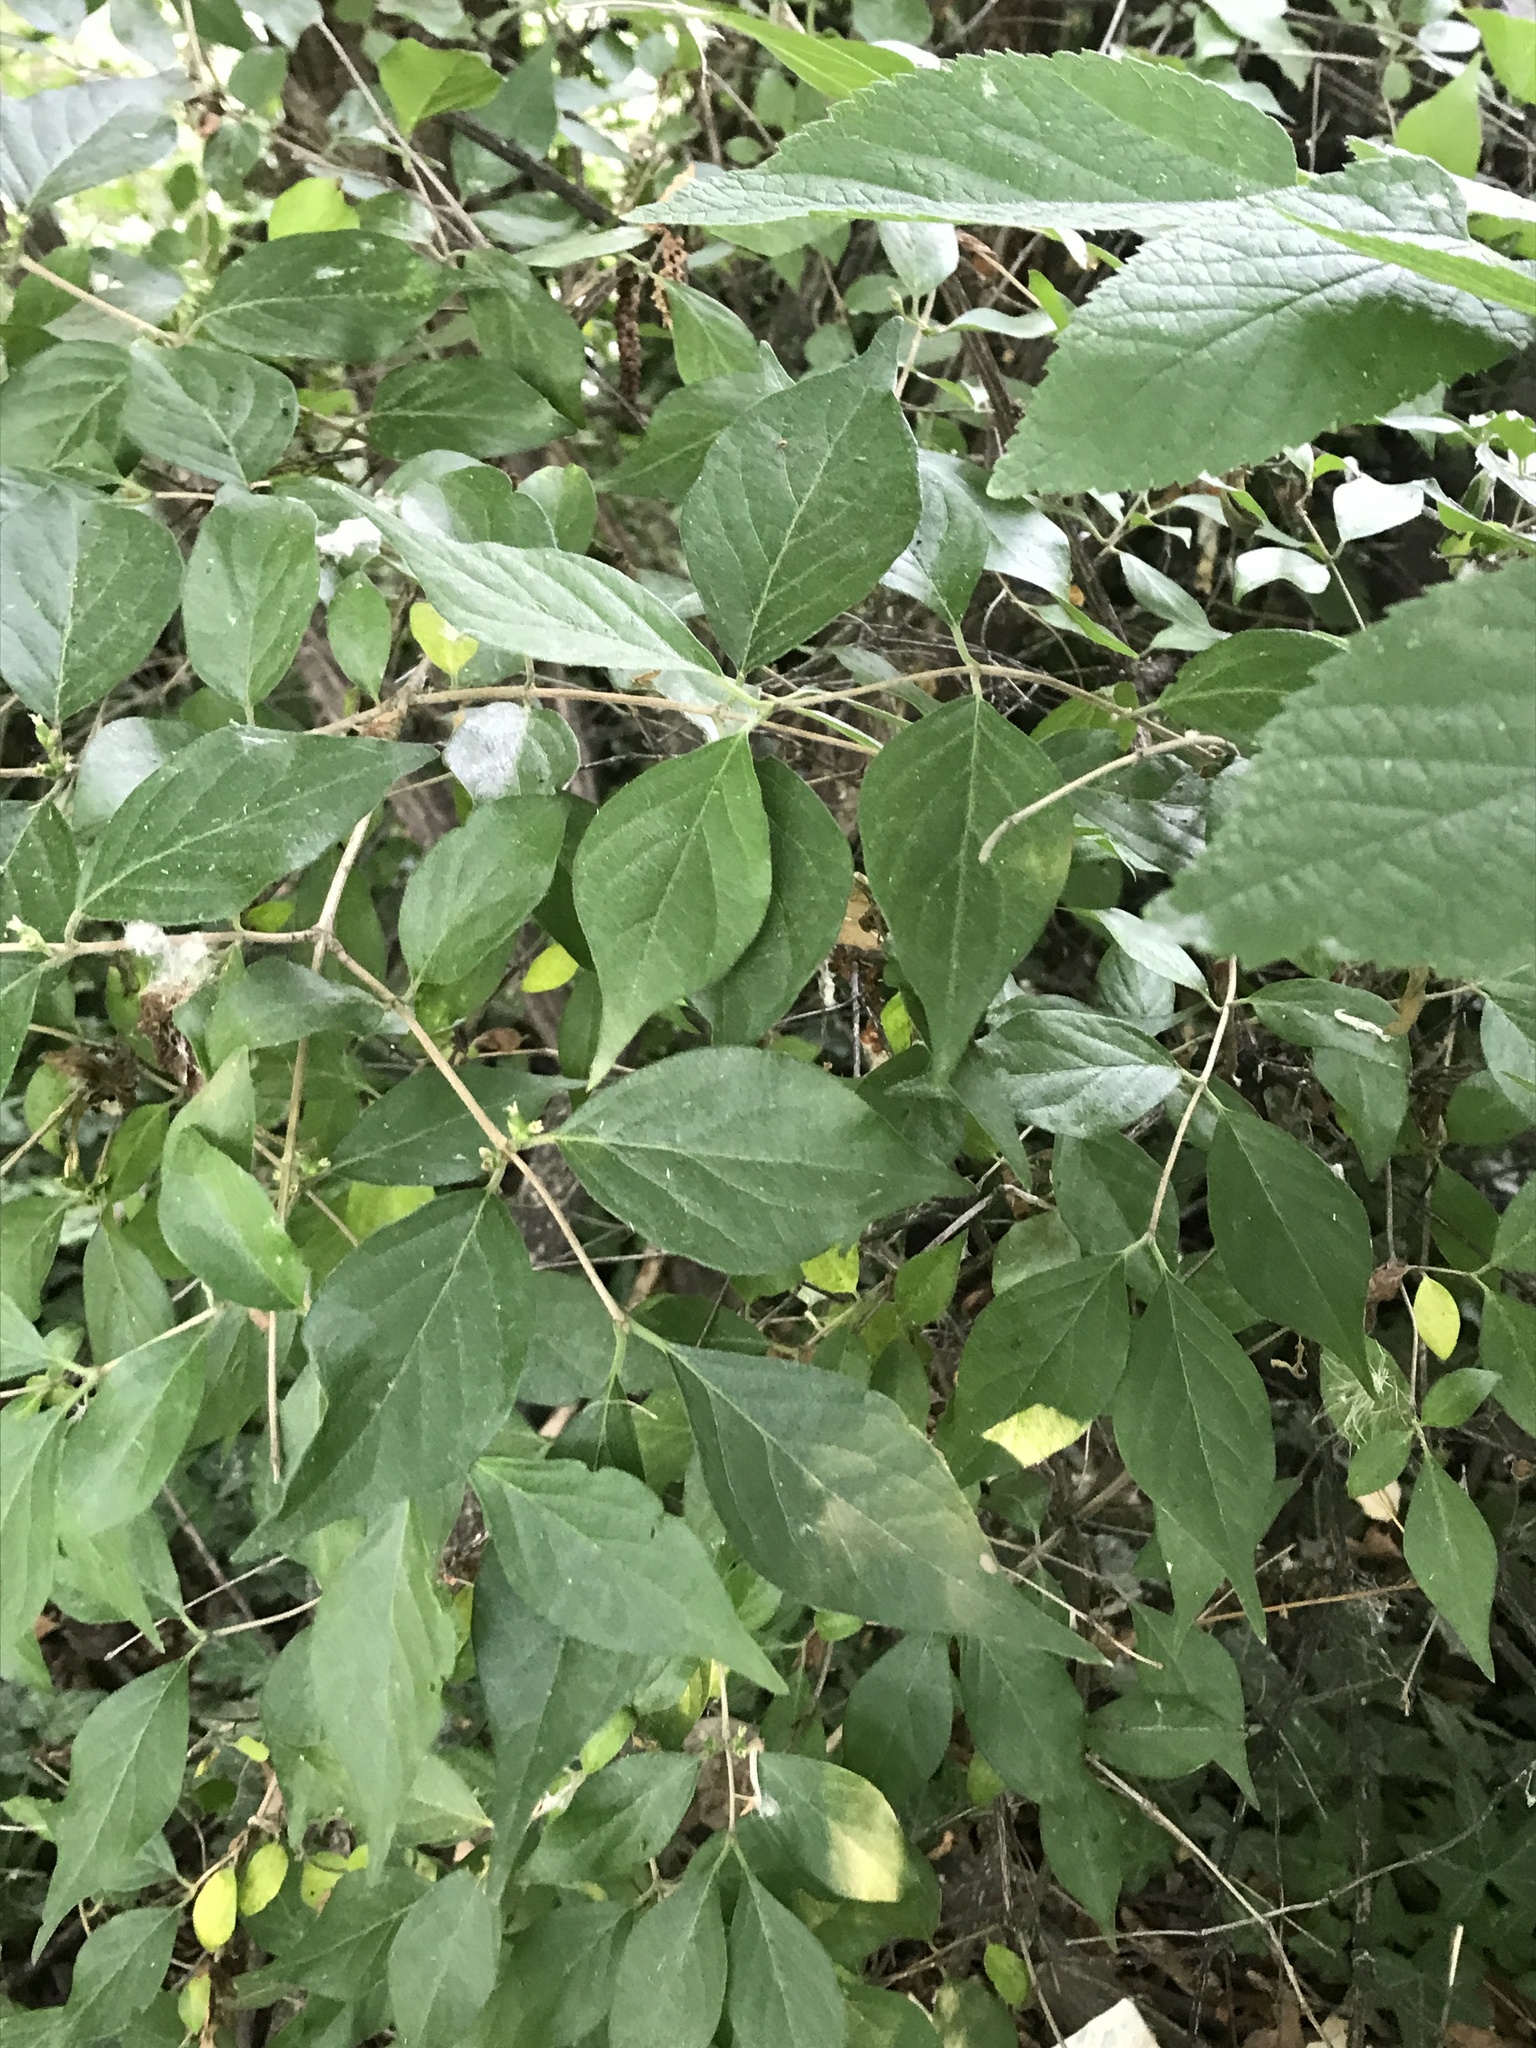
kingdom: Plantae
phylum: Tracheophyta
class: Magnoliopsida
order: Dipsacales
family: Caprifoliaceae
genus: Lonicera
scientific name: Lonicera maackii
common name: Amur honeysuckle
